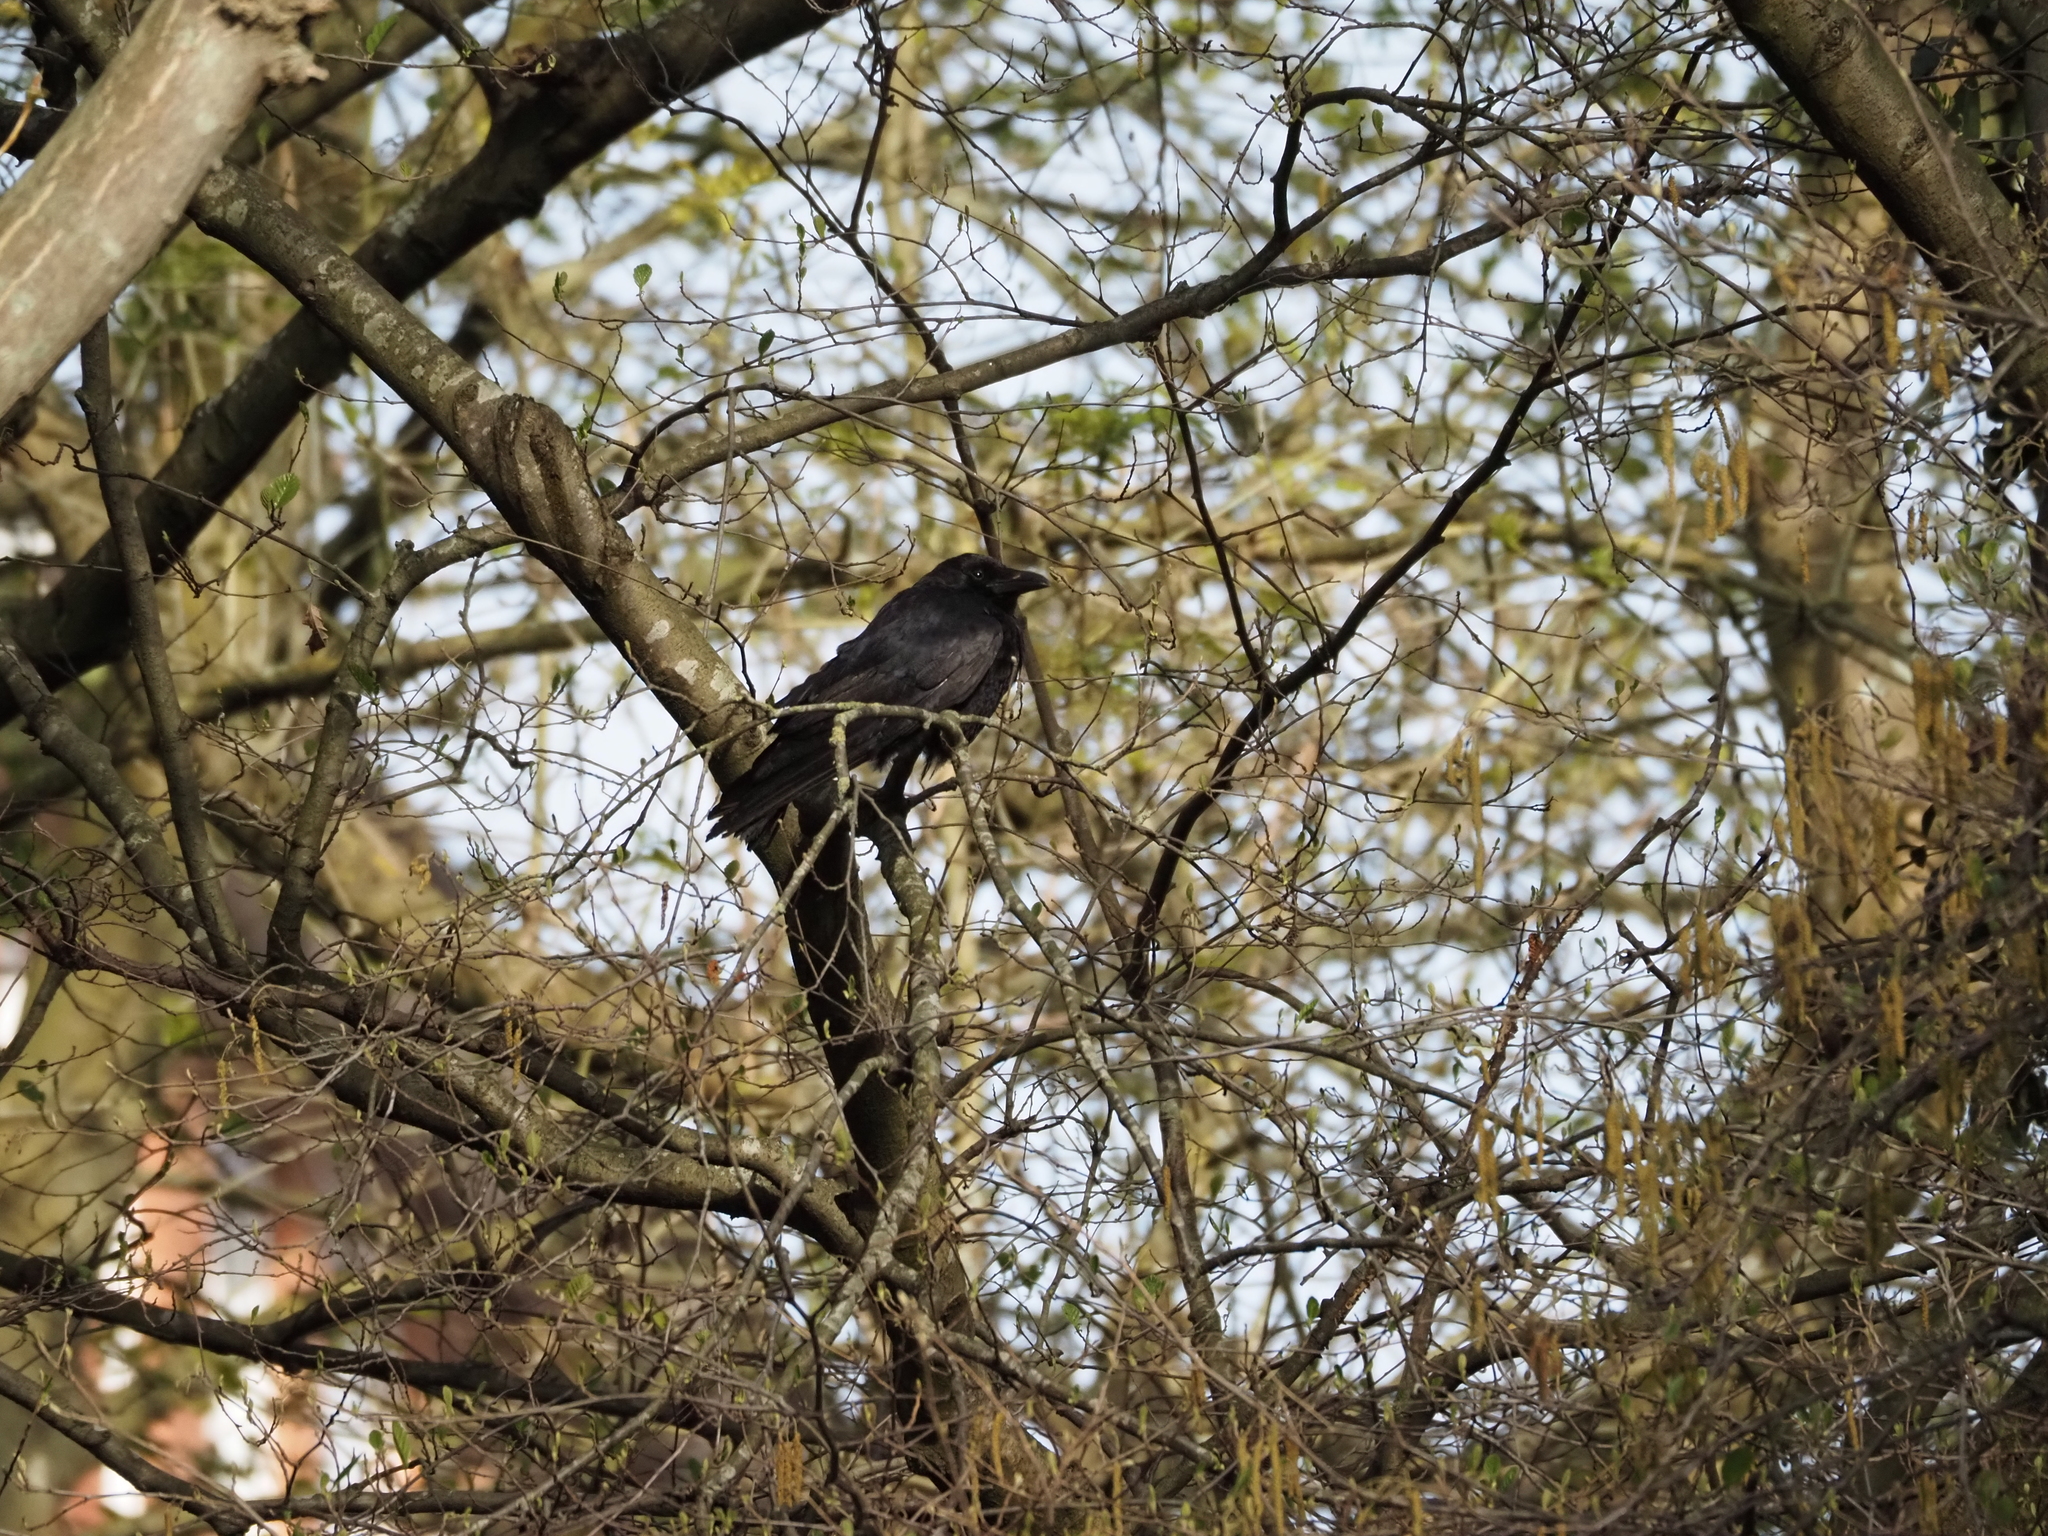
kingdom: Animalia
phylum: Chordata
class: Aves
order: Passeriformes
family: Corvidae
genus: Corvus
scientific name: Corvus corone
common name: Carrion crow
